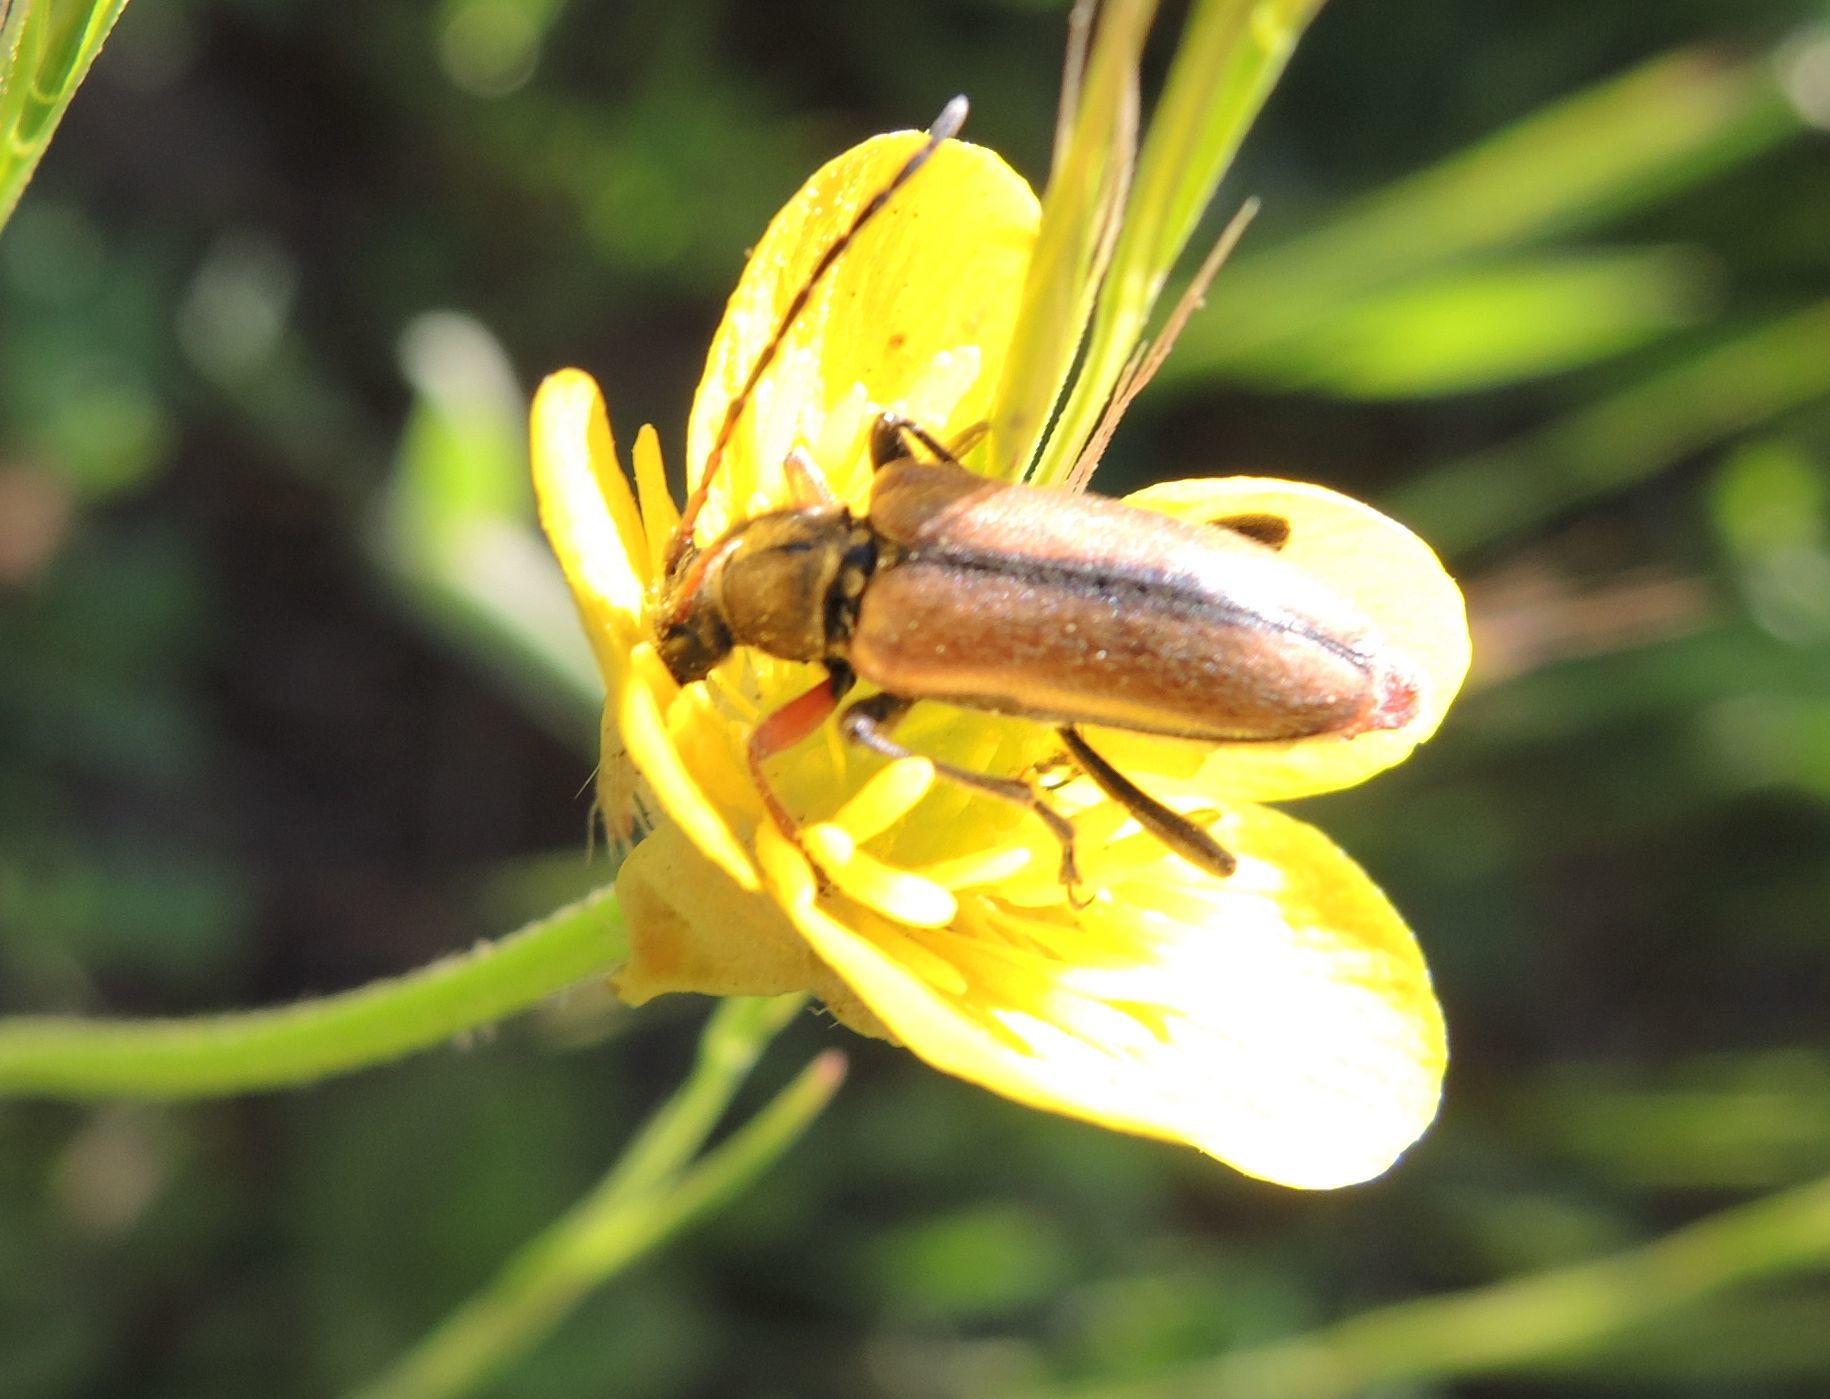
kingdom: Animalia
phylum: Arthropoda
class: Insecta
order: Coleoptera
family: Cerambycidae
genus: Cortodera
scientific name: Cortodera flavimana
